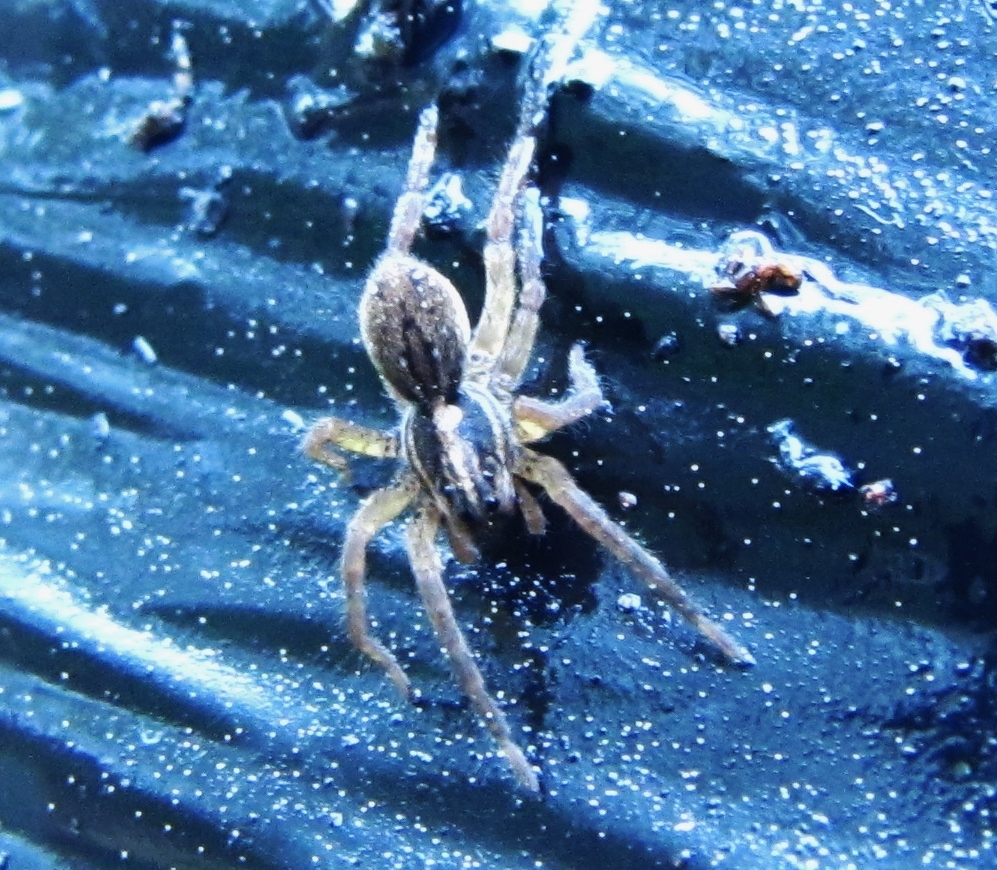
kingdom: Animalia
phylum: Arthropoda
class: Arachnida
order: Araneae
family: Lycosidae
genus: Tigrosa
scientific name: Tigrosa annexa
